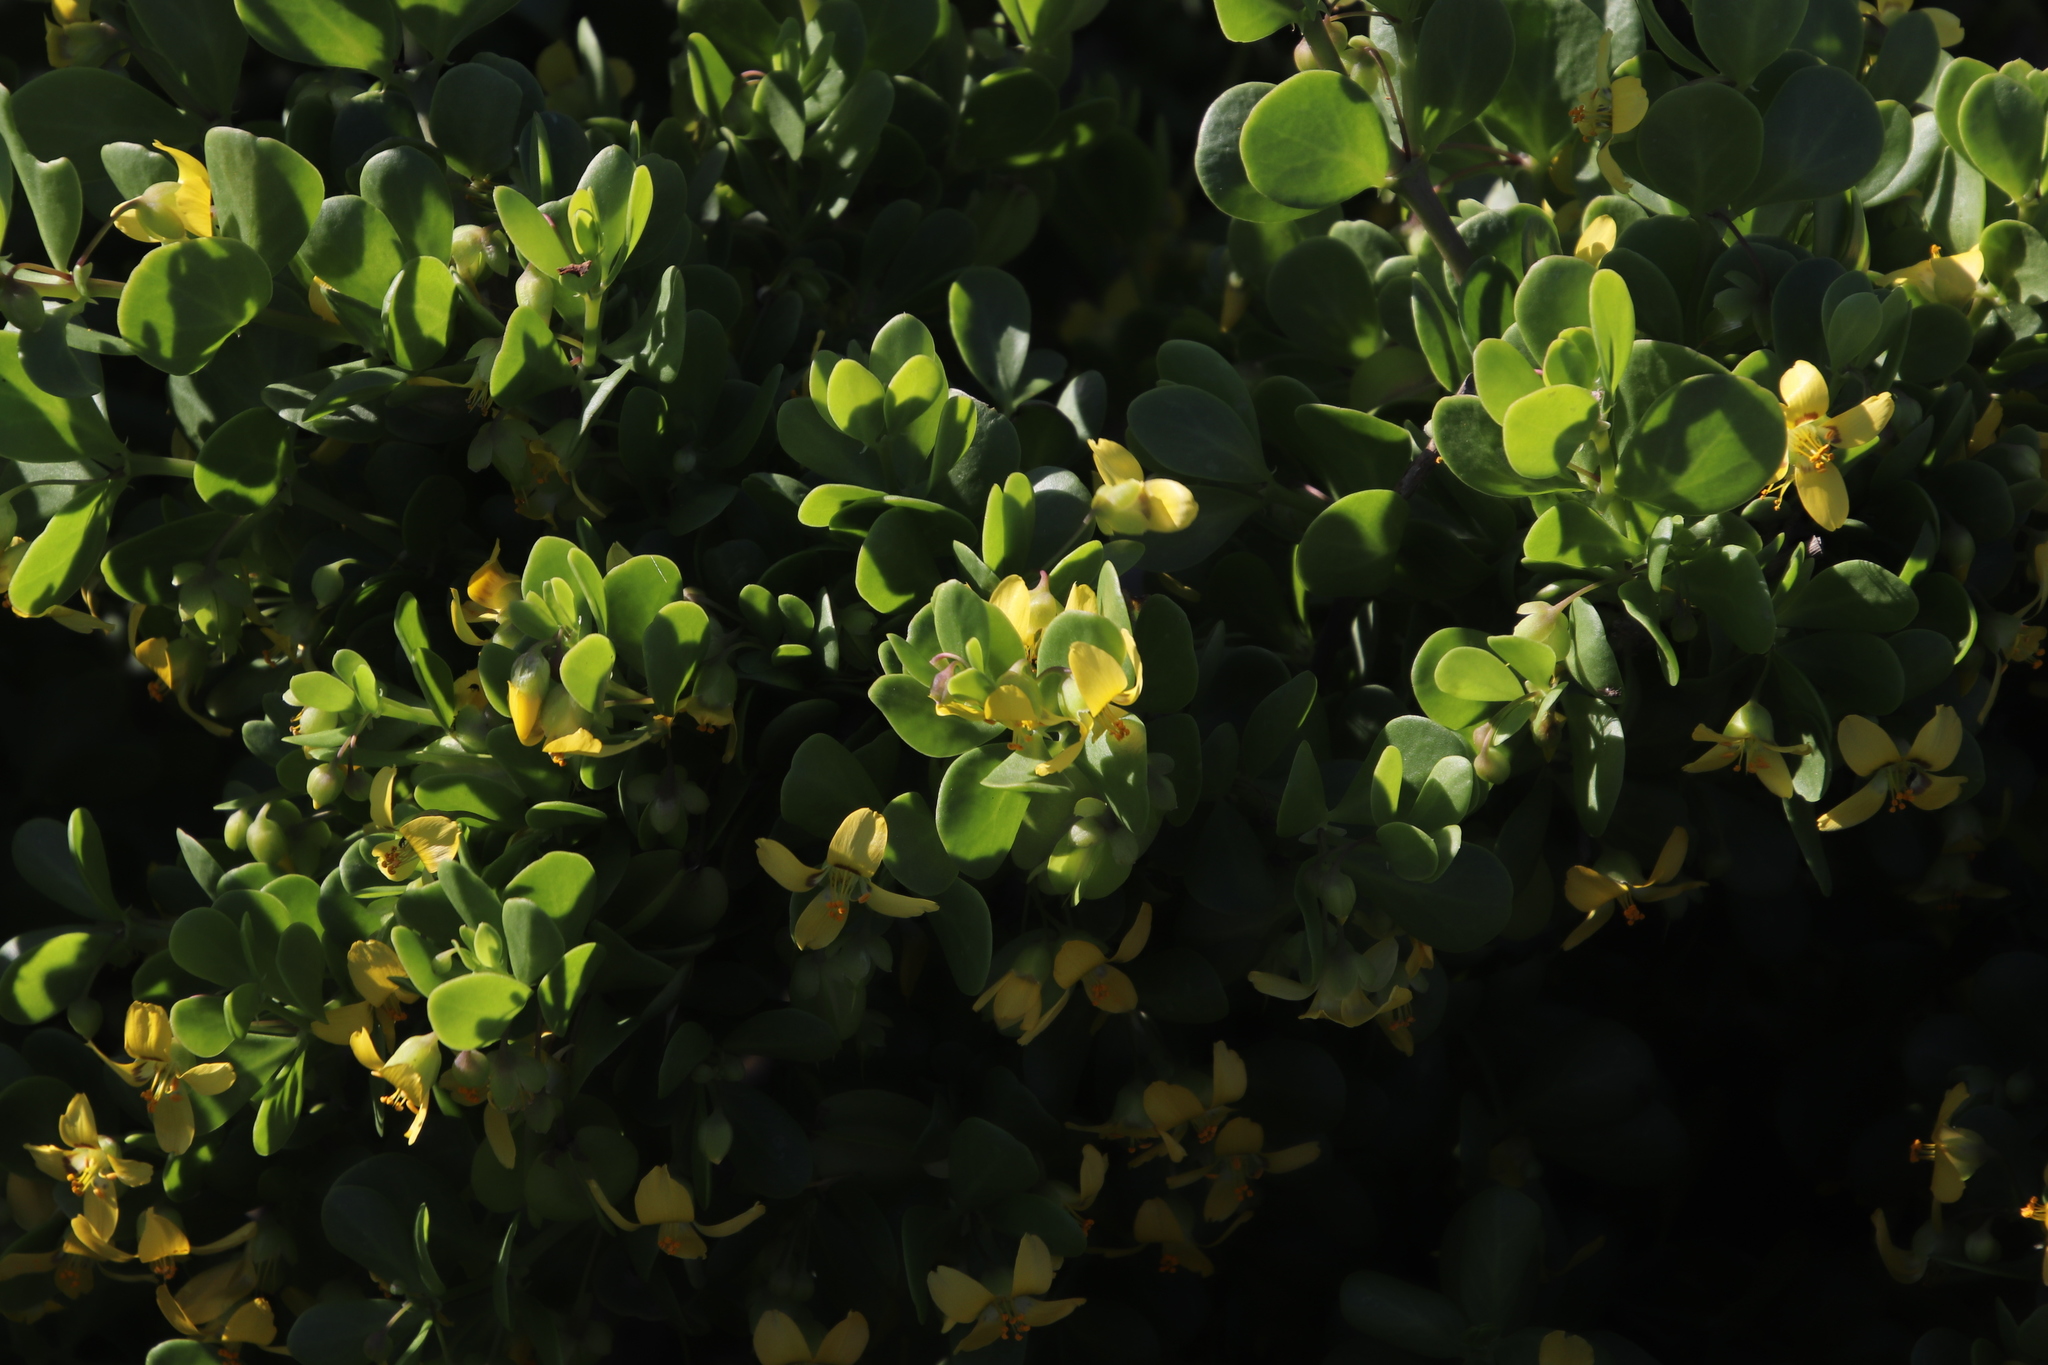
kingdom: Plantae
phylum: Tracheophyta
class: Magnoliopsida
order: Zygophyllales
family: Zygophyllaceae
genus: Roepera
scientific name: Roepera morgsana
